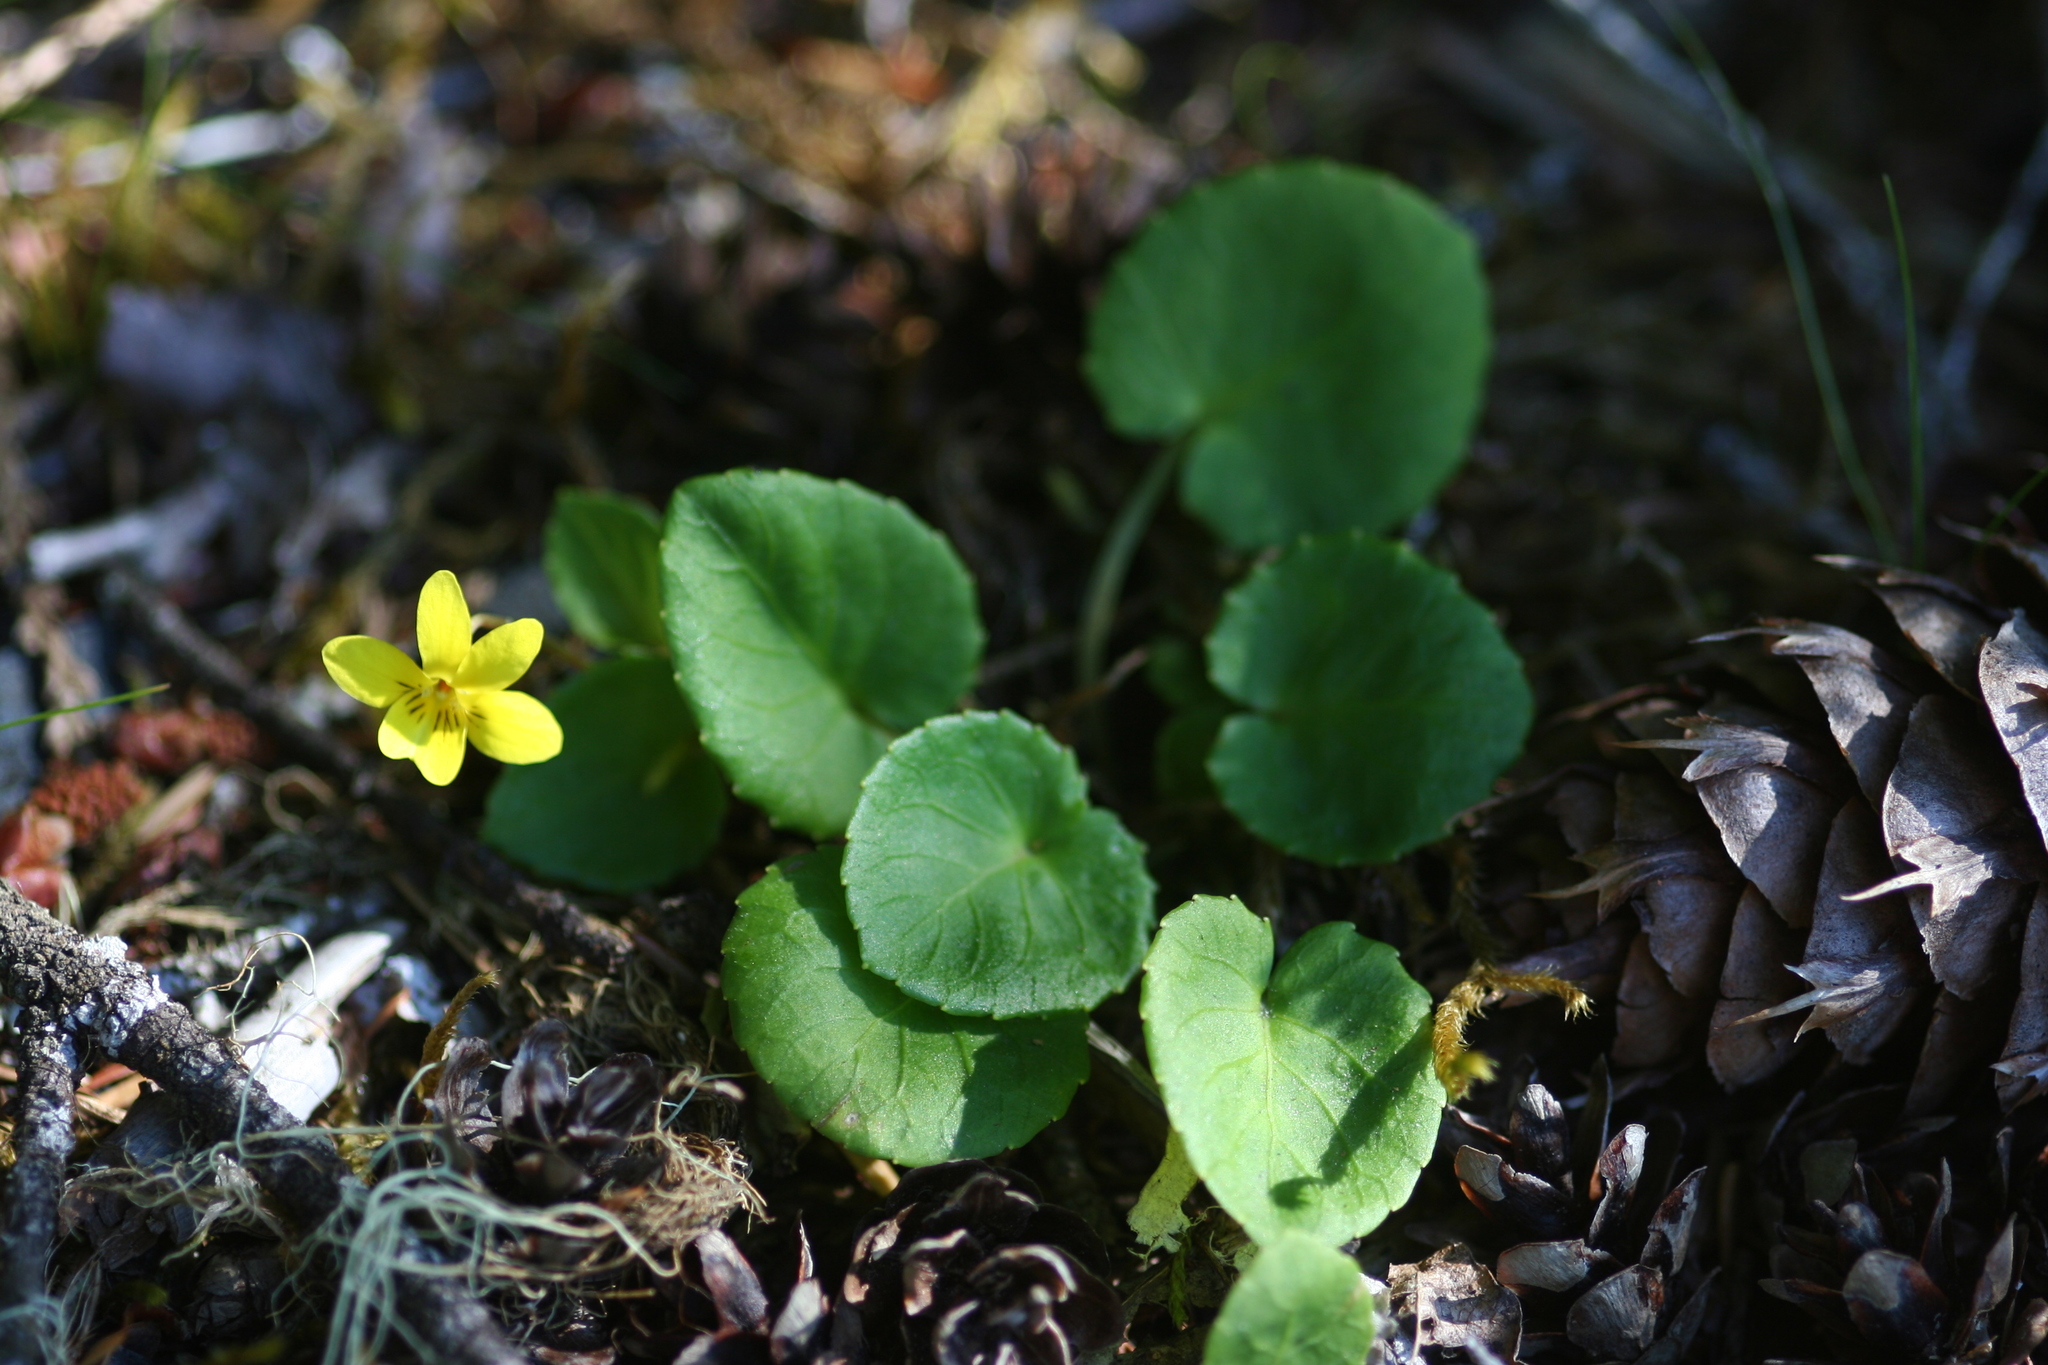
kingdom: Plantae
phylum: Tracheophyta
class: Magnoliopsida
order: Malpighiales
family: Violaceae
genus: Viola
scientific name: Viola sempervirens
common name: Evergreen violet
